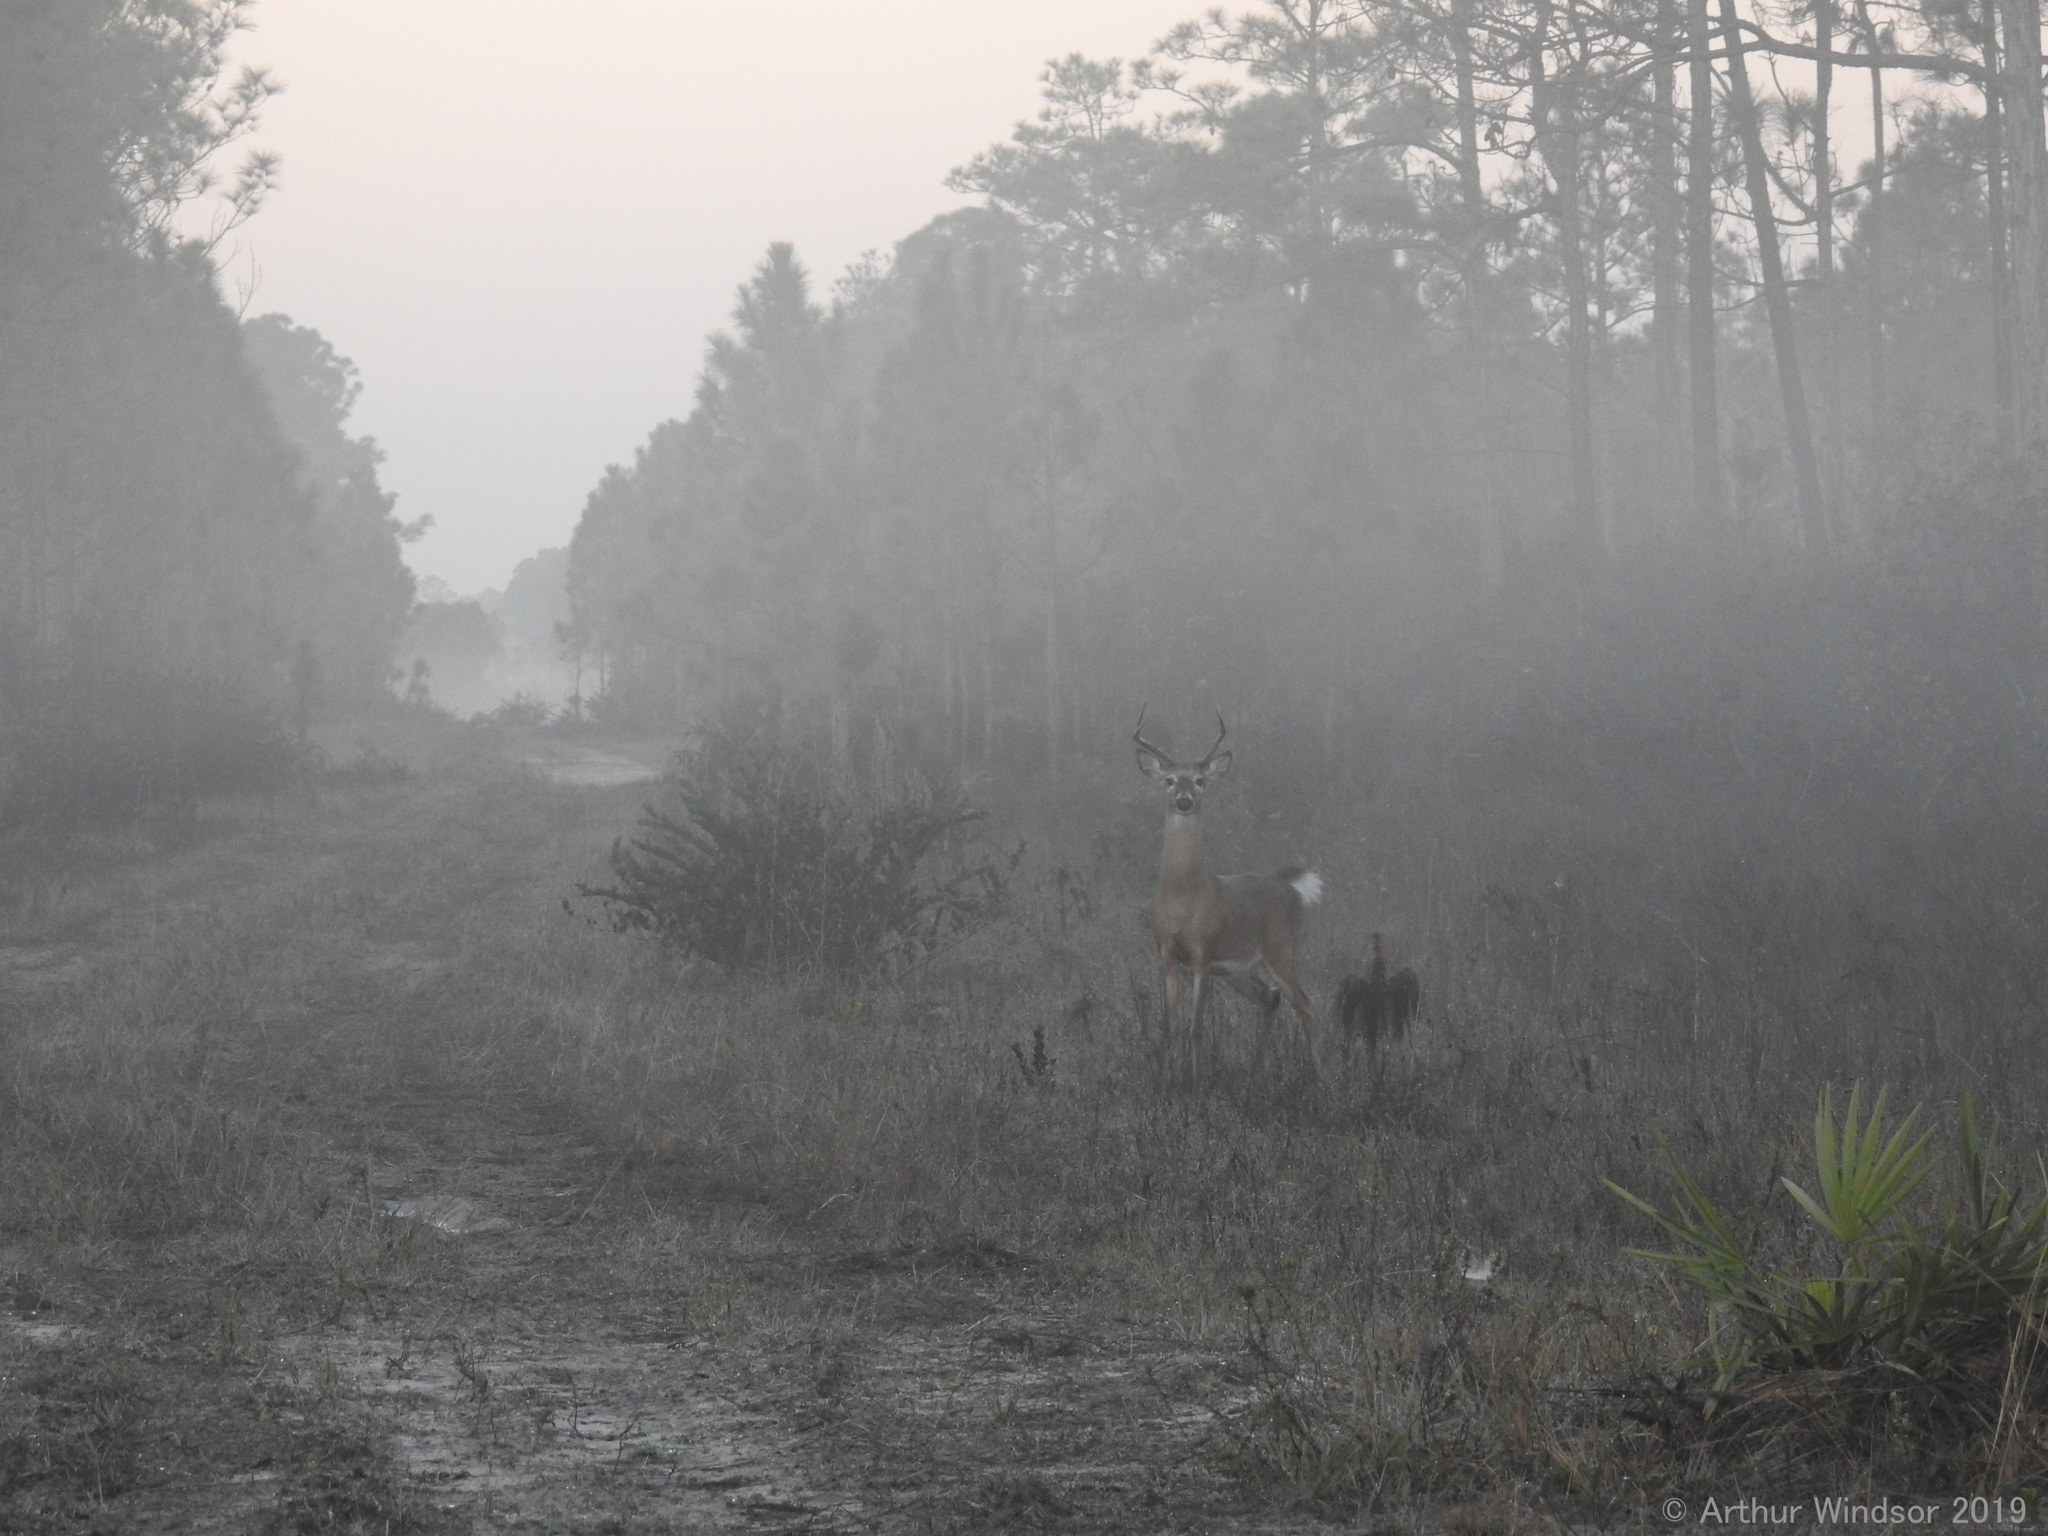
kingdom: Animalia
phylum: Chordata
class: Mammalia
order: Artiodactyla
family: Cervidae
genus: Odocoileus
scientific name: Odocoileus virginianus
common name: White-tailed deer
